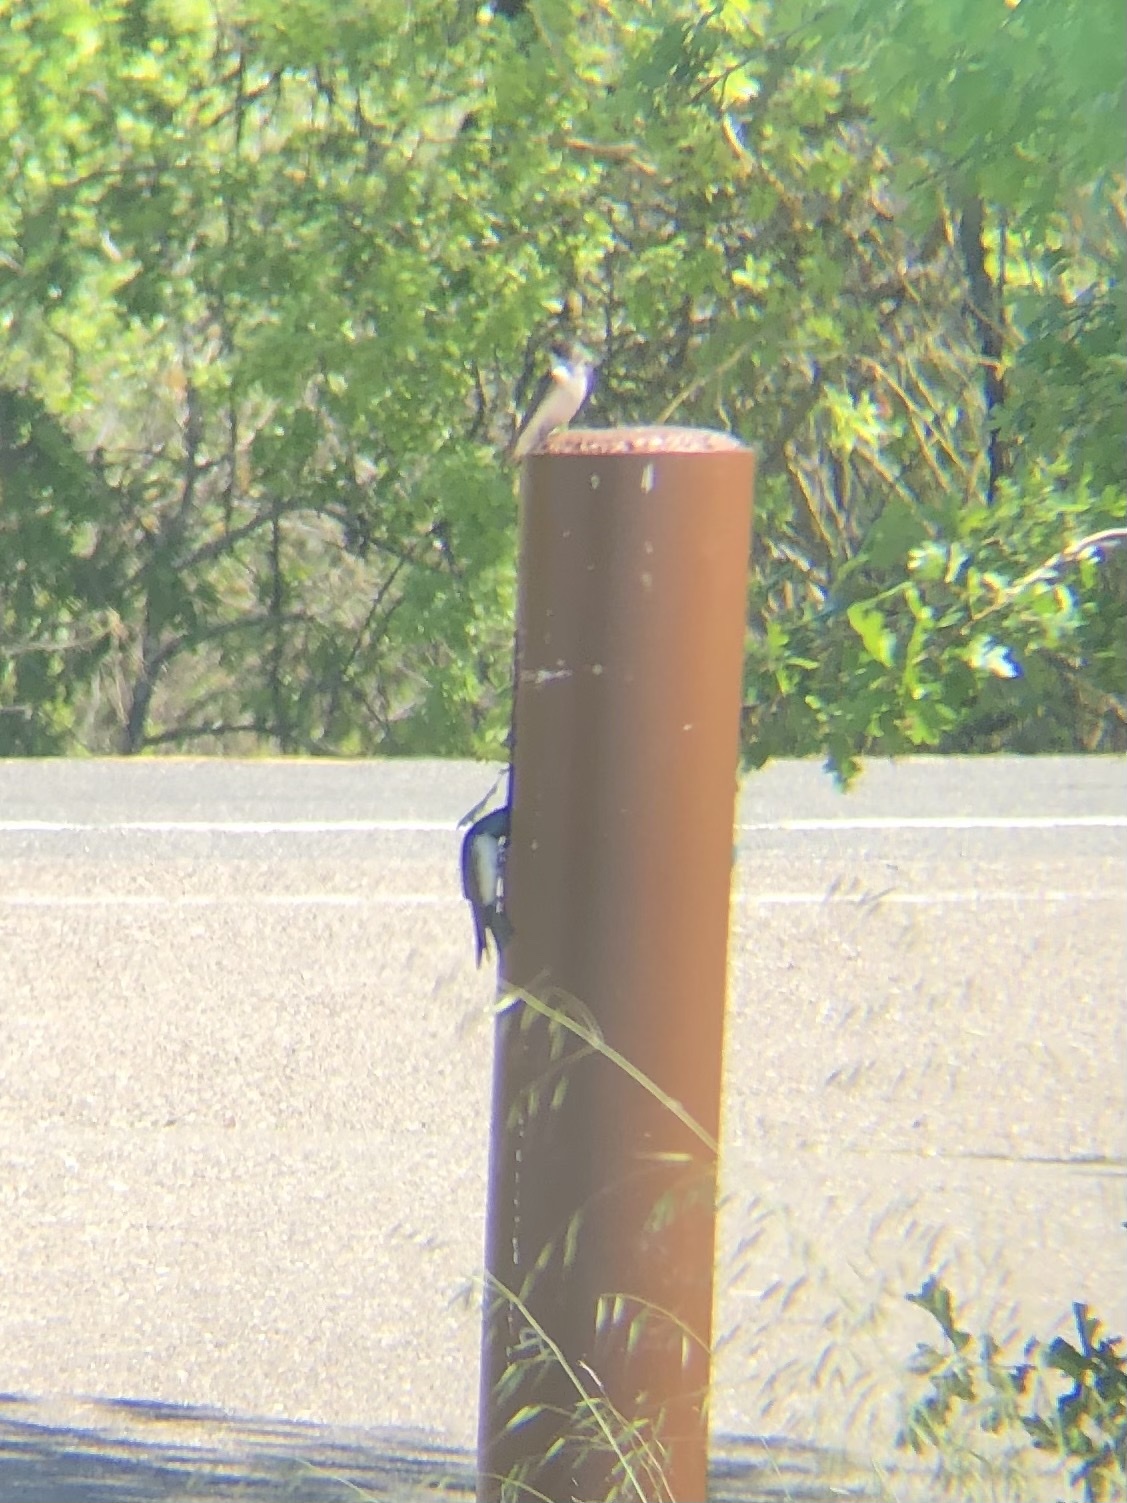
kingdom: Animalia
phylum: Chordata
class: Aves
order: Passeriformes
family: Hirundinidae
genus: Tachycineta
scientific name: Tachycineta bicolor
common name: Tree swallow
